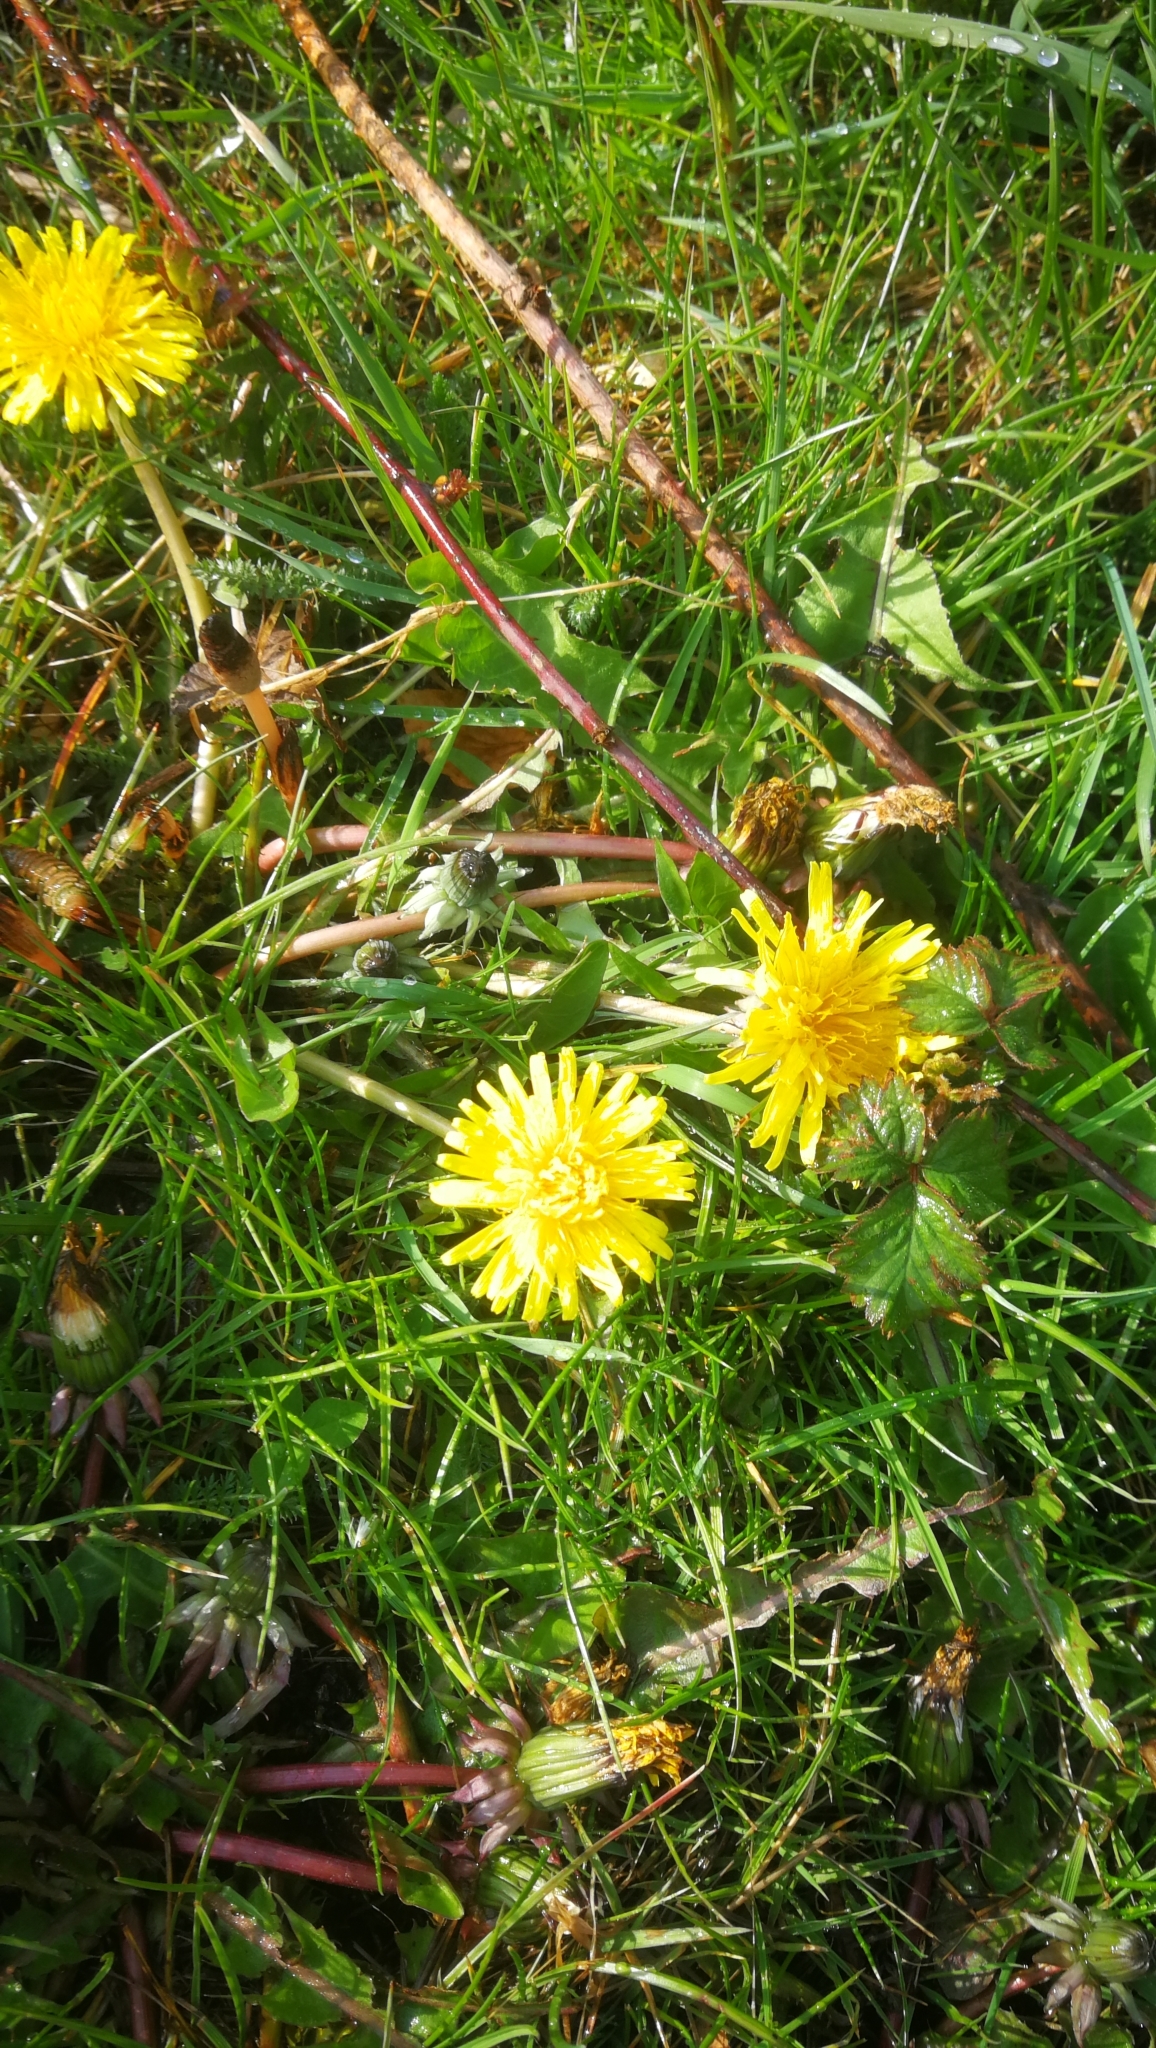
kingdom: Plantae
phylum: Tracheophyta
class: Magnoliopsida
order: Asterales
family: Asteraceae
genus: Taraxacum
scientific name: Taraxacum officinale
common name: Common dandelion
